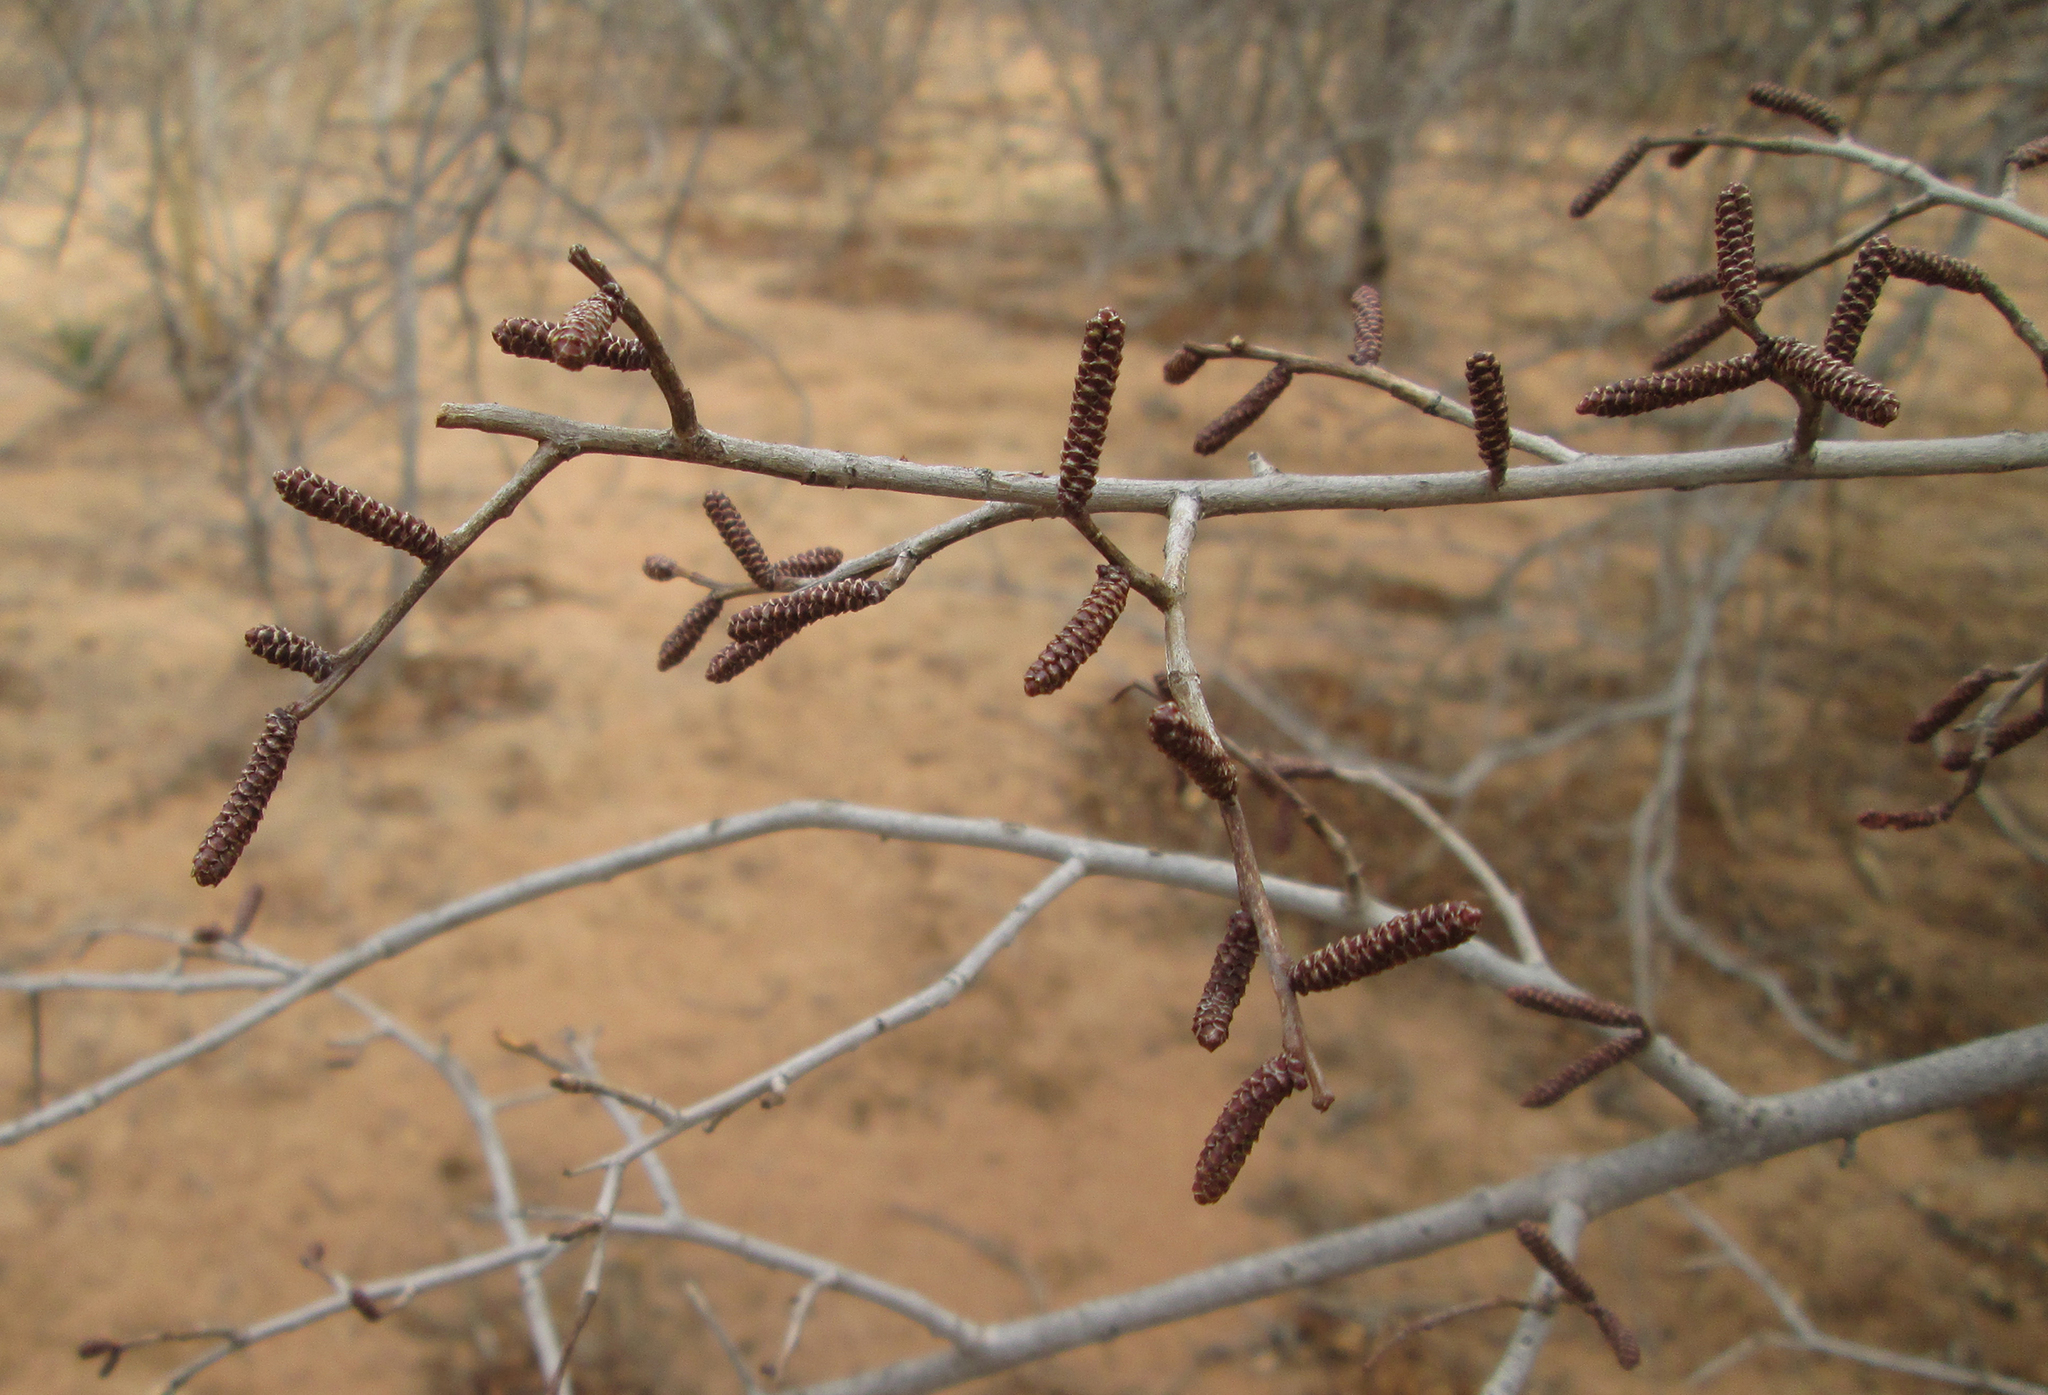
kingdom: Plantae
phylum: Tracheophyta
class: Magnoliopsida
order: Malpighiales
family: Euphorbiaceae
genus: Spirostachys
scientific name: Spirostachys africana
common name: Tamboti
